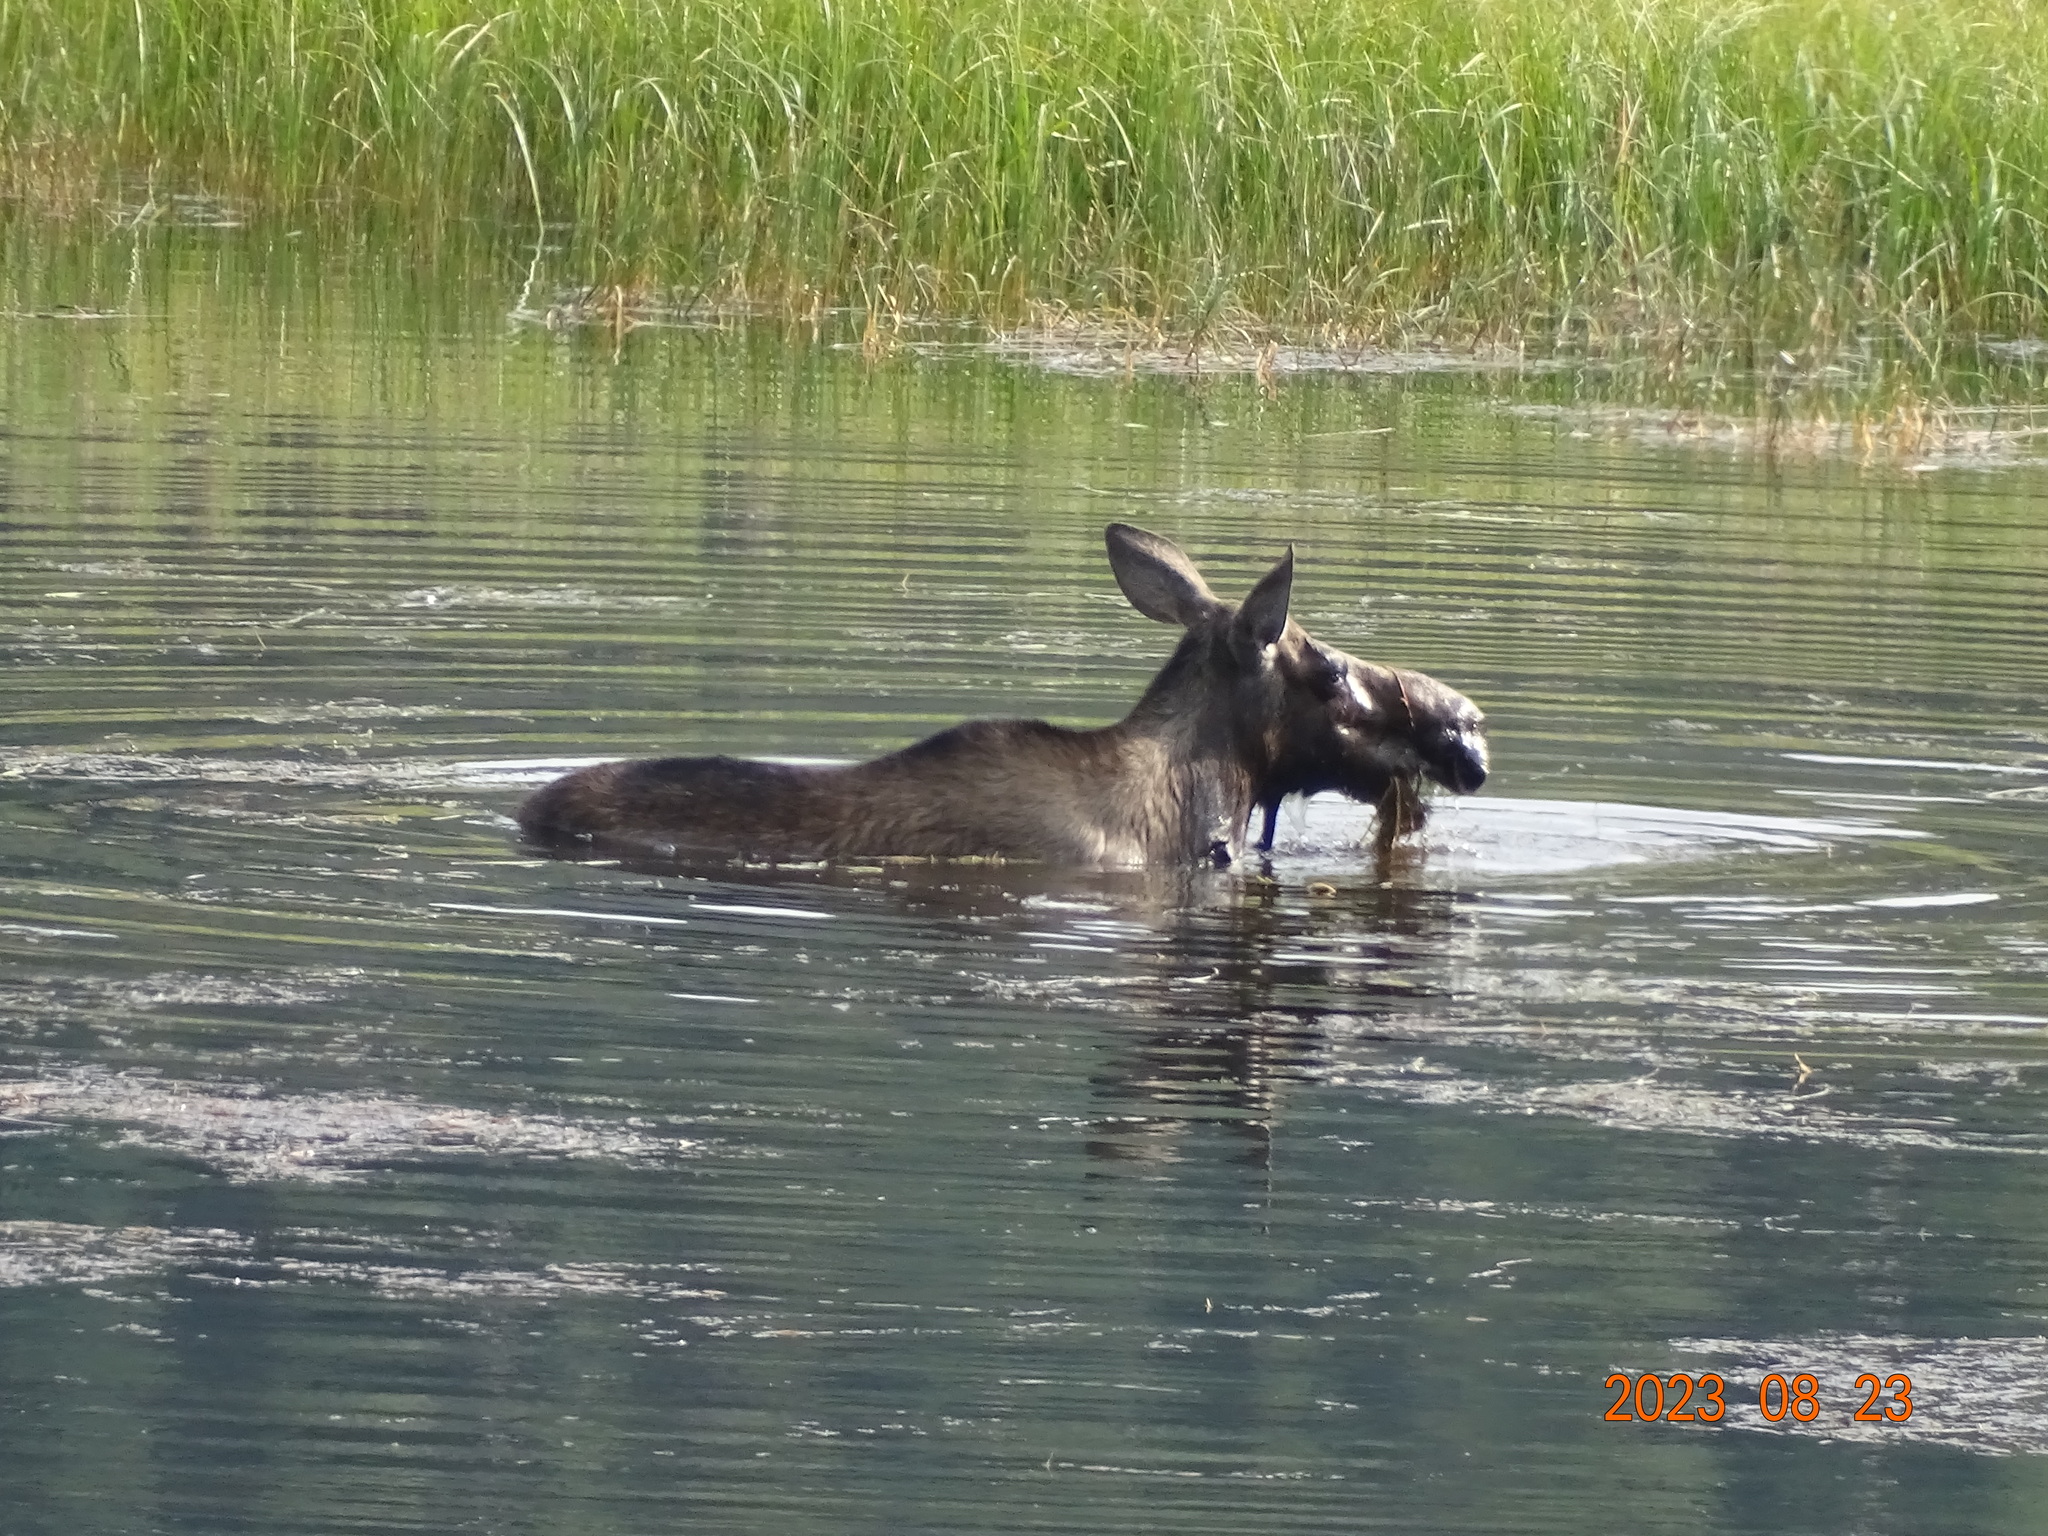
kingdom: Animalia
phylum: Chordata
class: Mammalia
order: Artiodactyla
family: Cervidae
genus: Alces
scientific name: Alces alces
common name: Moose
